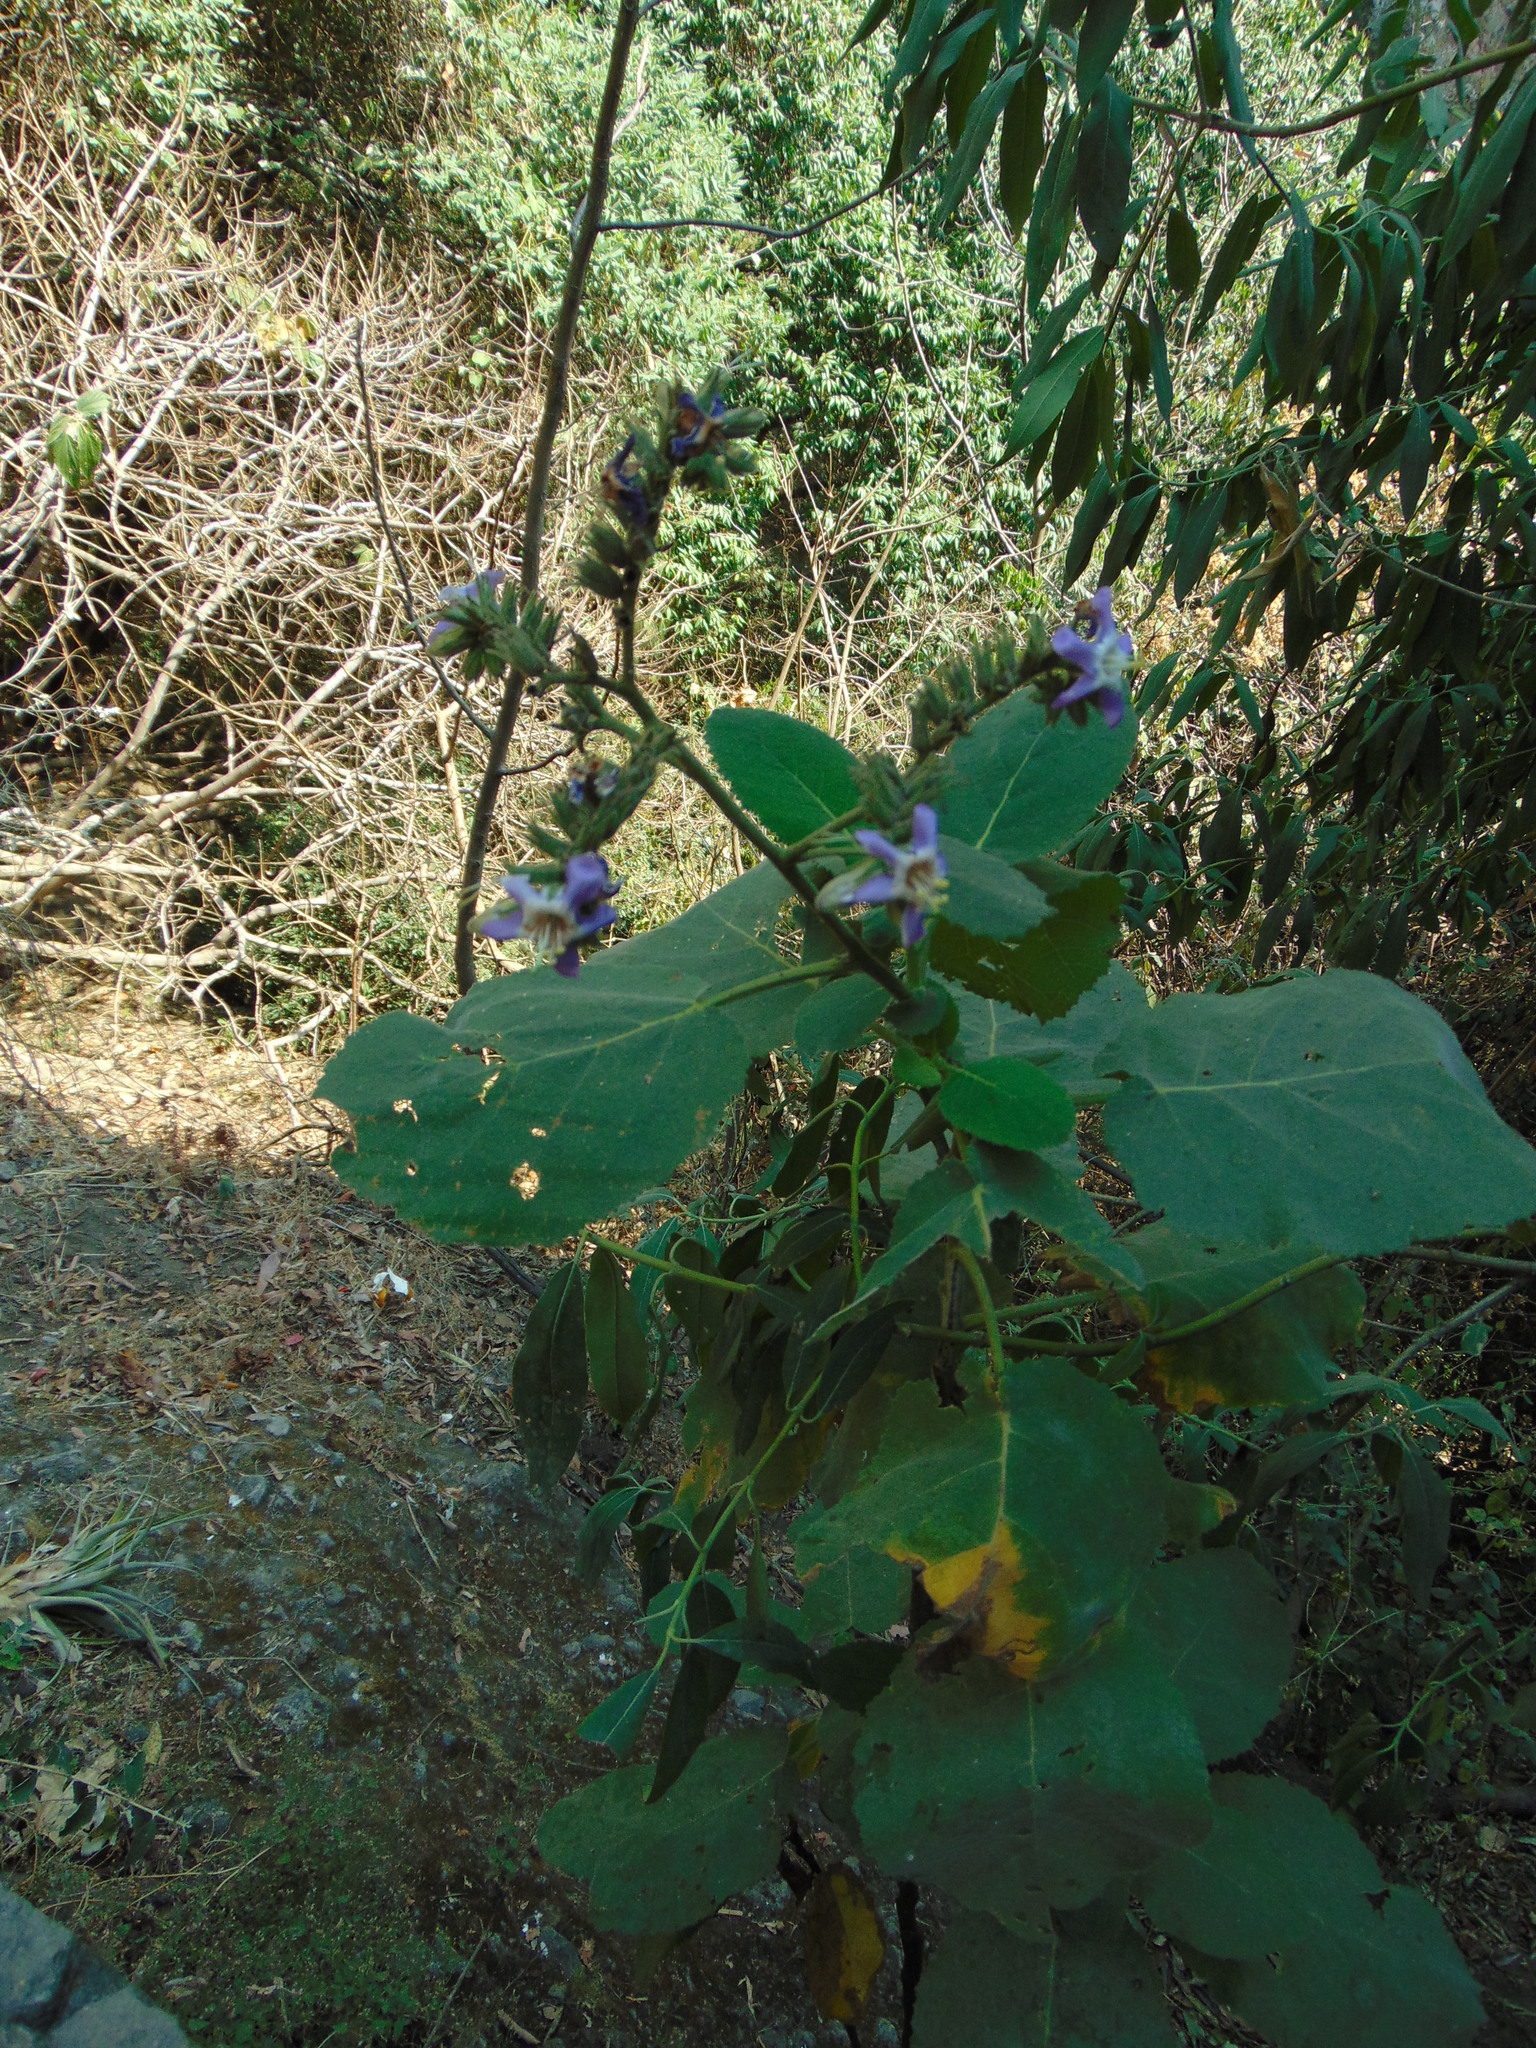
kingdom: Plantae
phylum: Tracheophyta
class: Magnoliopsida
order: Boraginales
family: Namaceae
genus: Wigandia
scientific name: Wigandia urens
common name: Caracus wigandia
